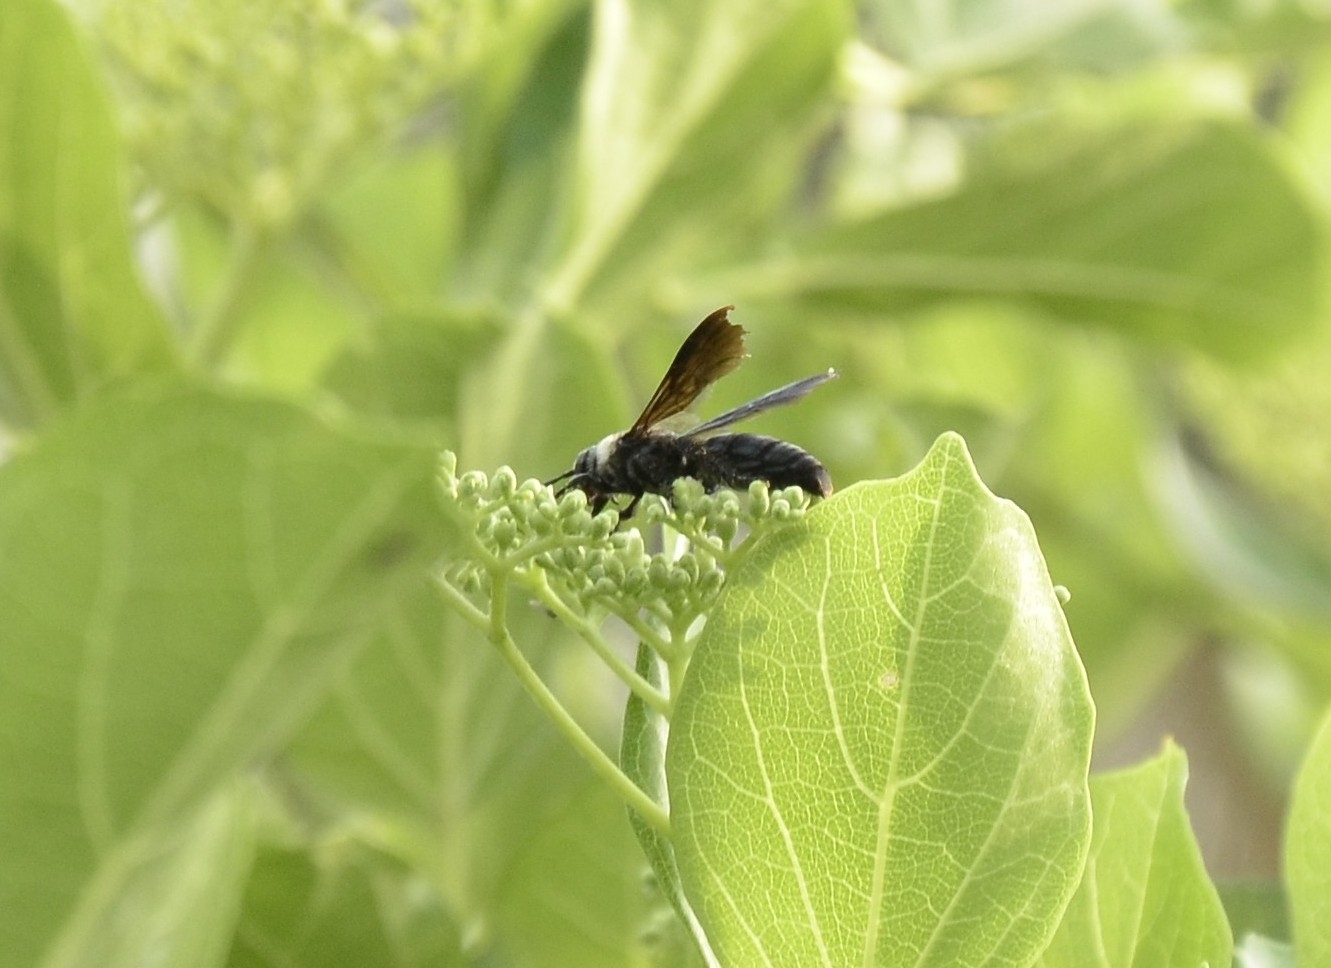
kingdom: Animalia
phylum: Arthropoda
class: Insecta
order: Hymenoptera
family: Scoliidae
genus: Campsomeriella
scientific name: Campsomeriella collaris
